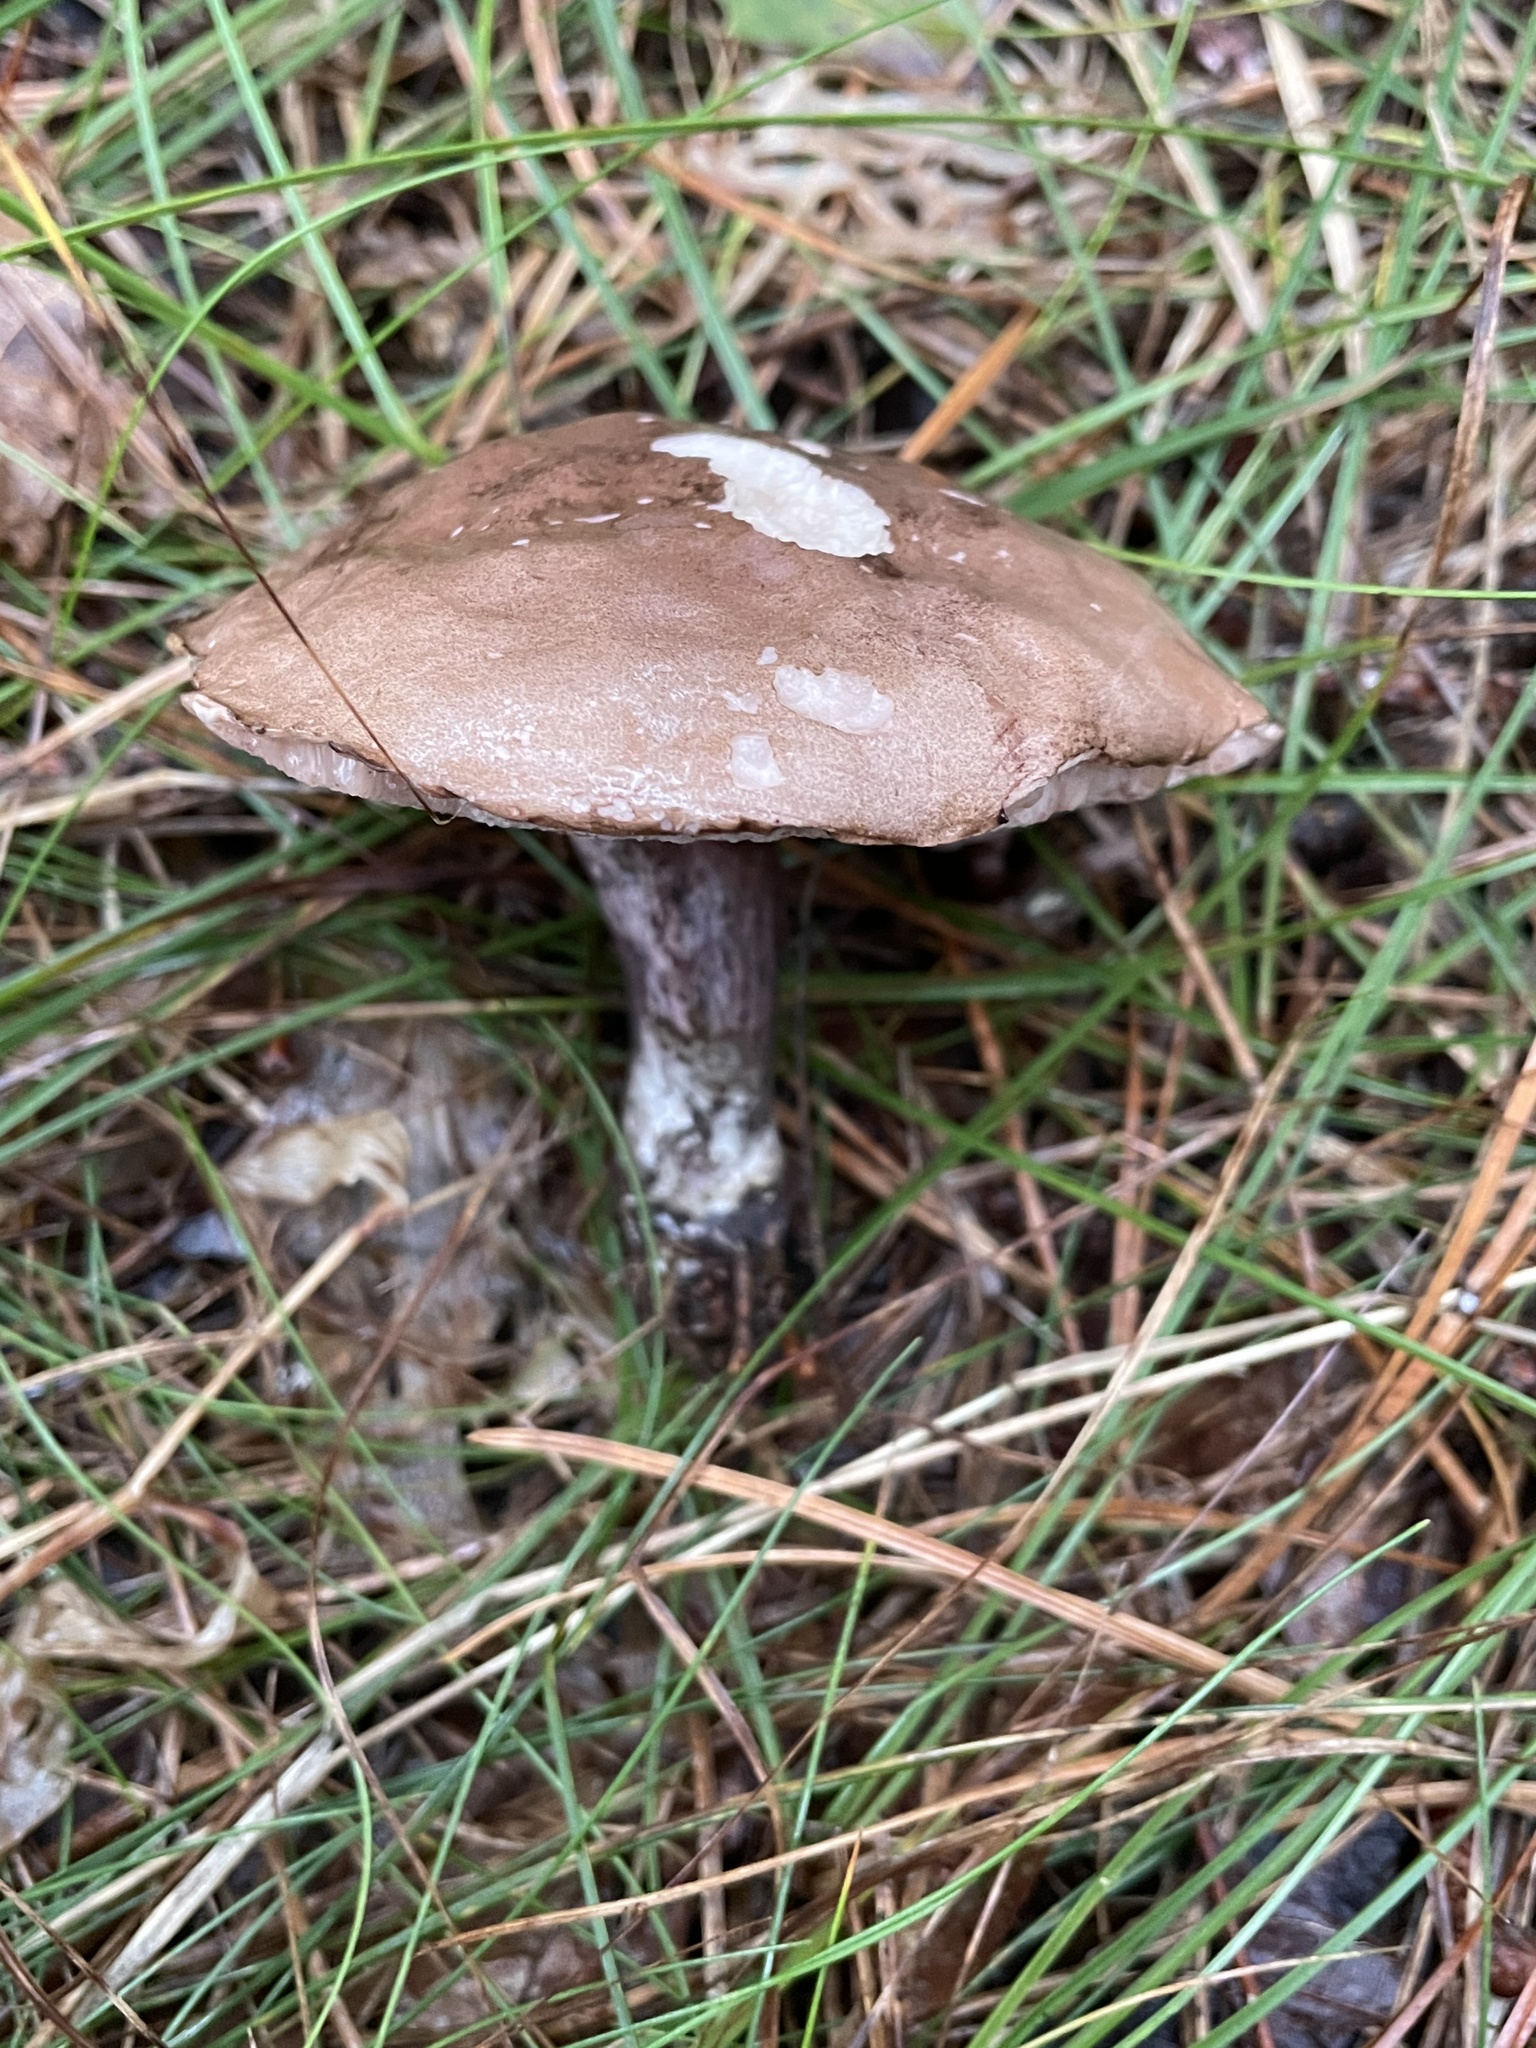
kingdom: Fungi
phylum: Basidiomycota
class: Agaricomycetes
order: Boletales
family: Boletaceae
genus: Tylopilus
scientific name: Tylopilus plumbeoviolaceus
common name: Violet gray bolete
